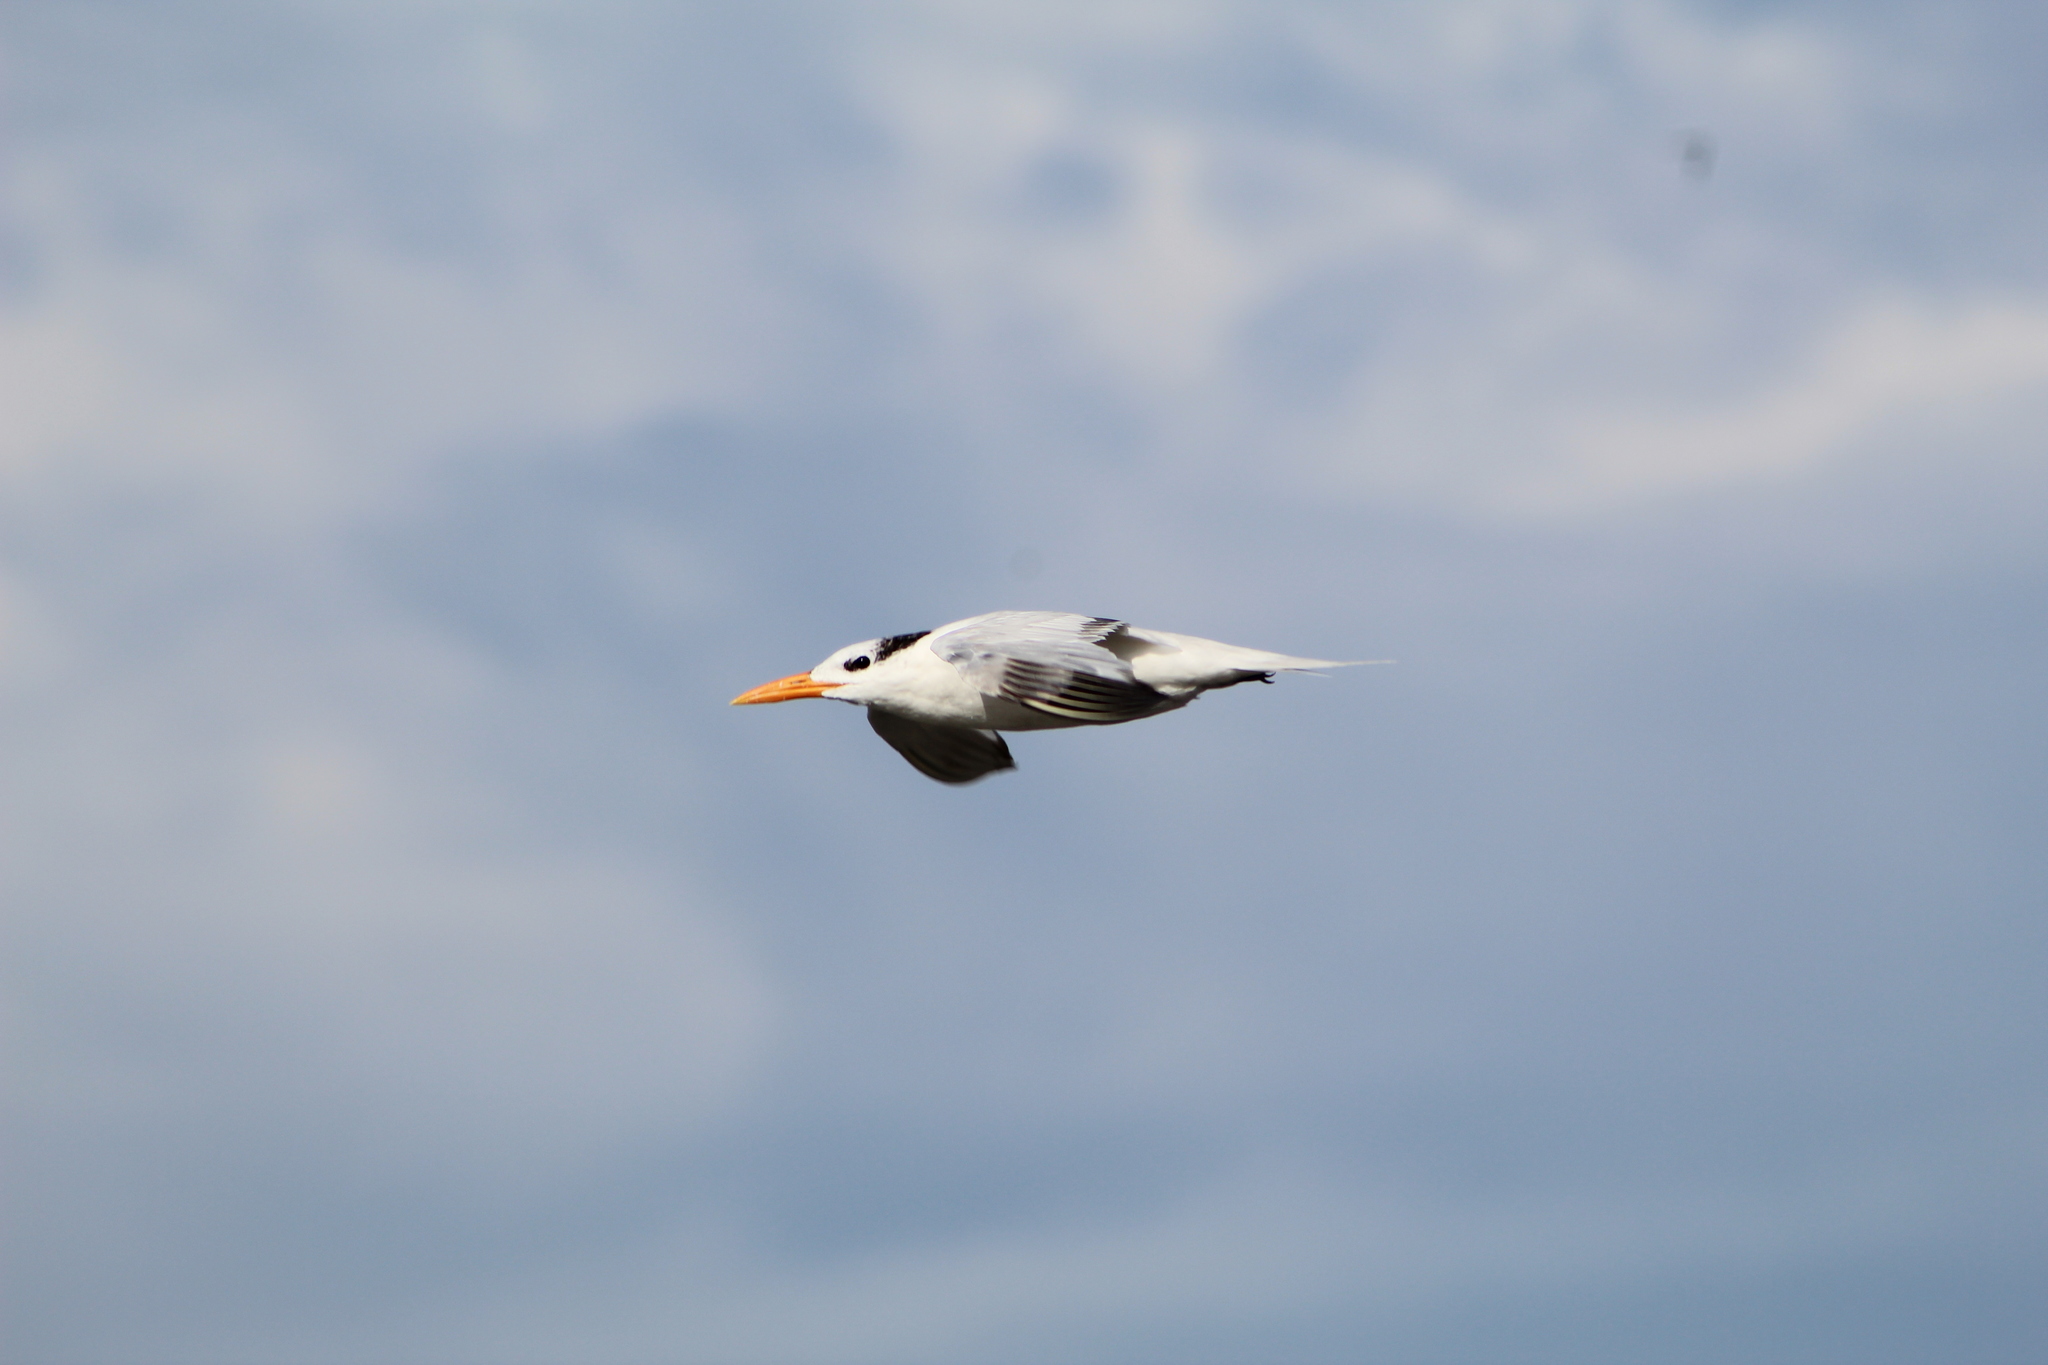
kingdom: Animalia
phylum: Chordata
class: Aves
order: Charadriiformes
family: Laridae
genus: Thalasseus
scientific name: Thalasseus maximus
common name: Royal tern
